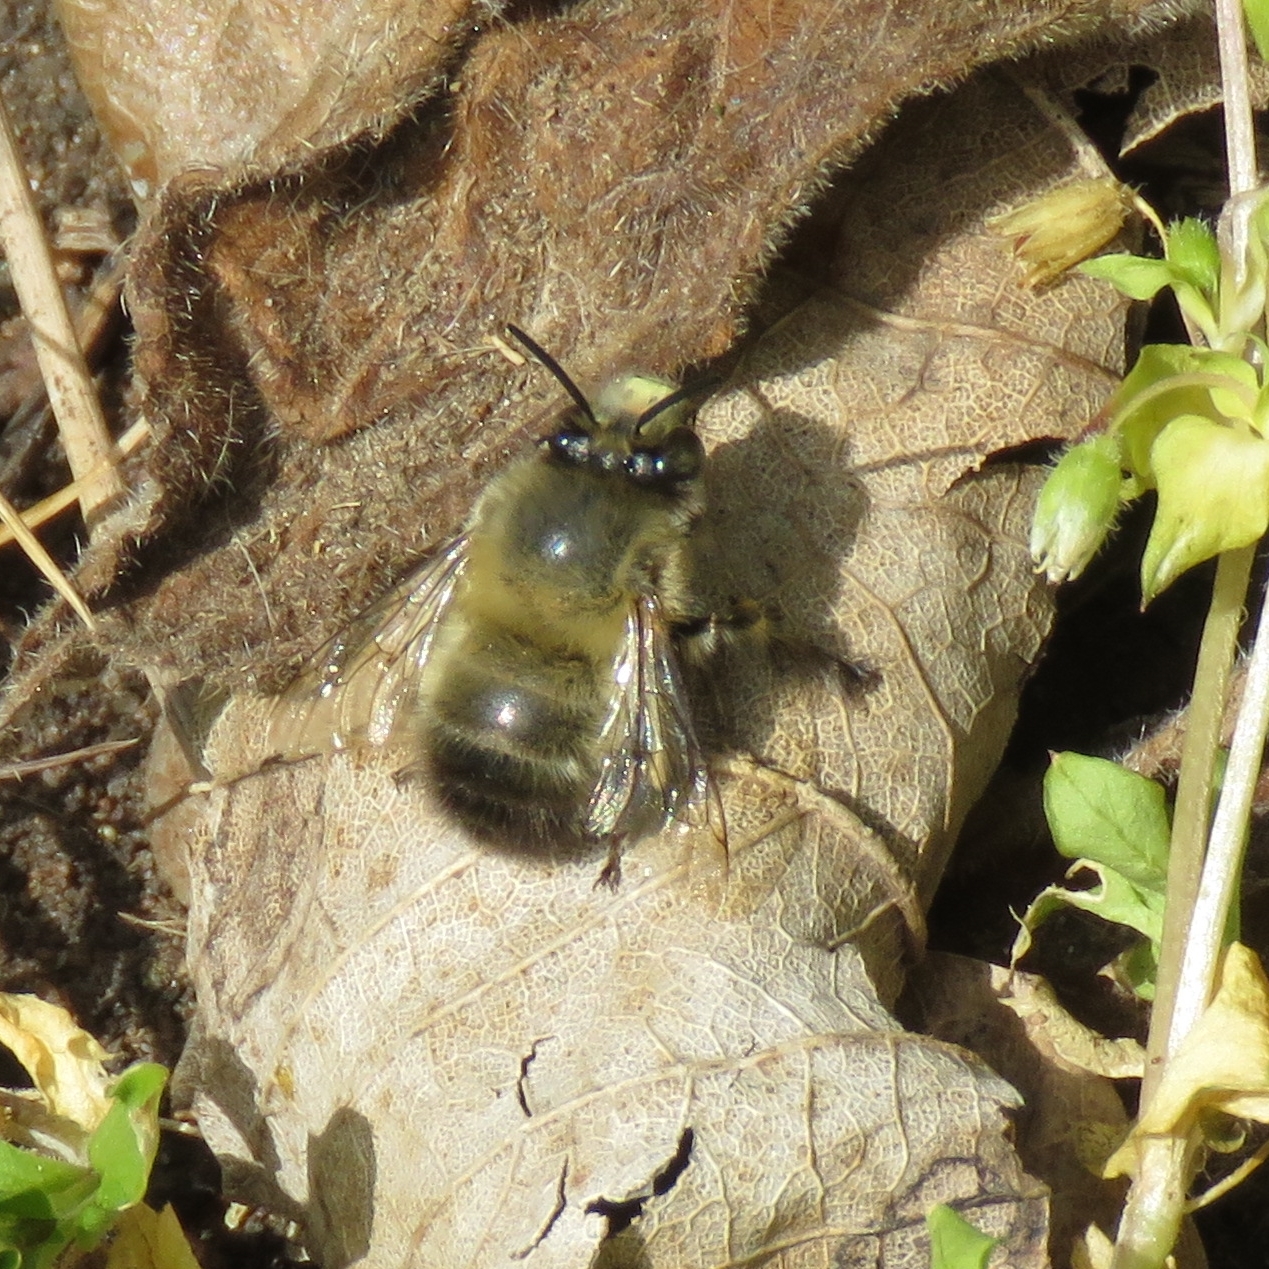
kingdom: Animalia
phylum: Arthropoda
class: Insecta
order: Hymenoptera
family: Apidae
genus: Anthophora
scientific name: Anthophora plumipes
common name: Hairy-footed flower bee
